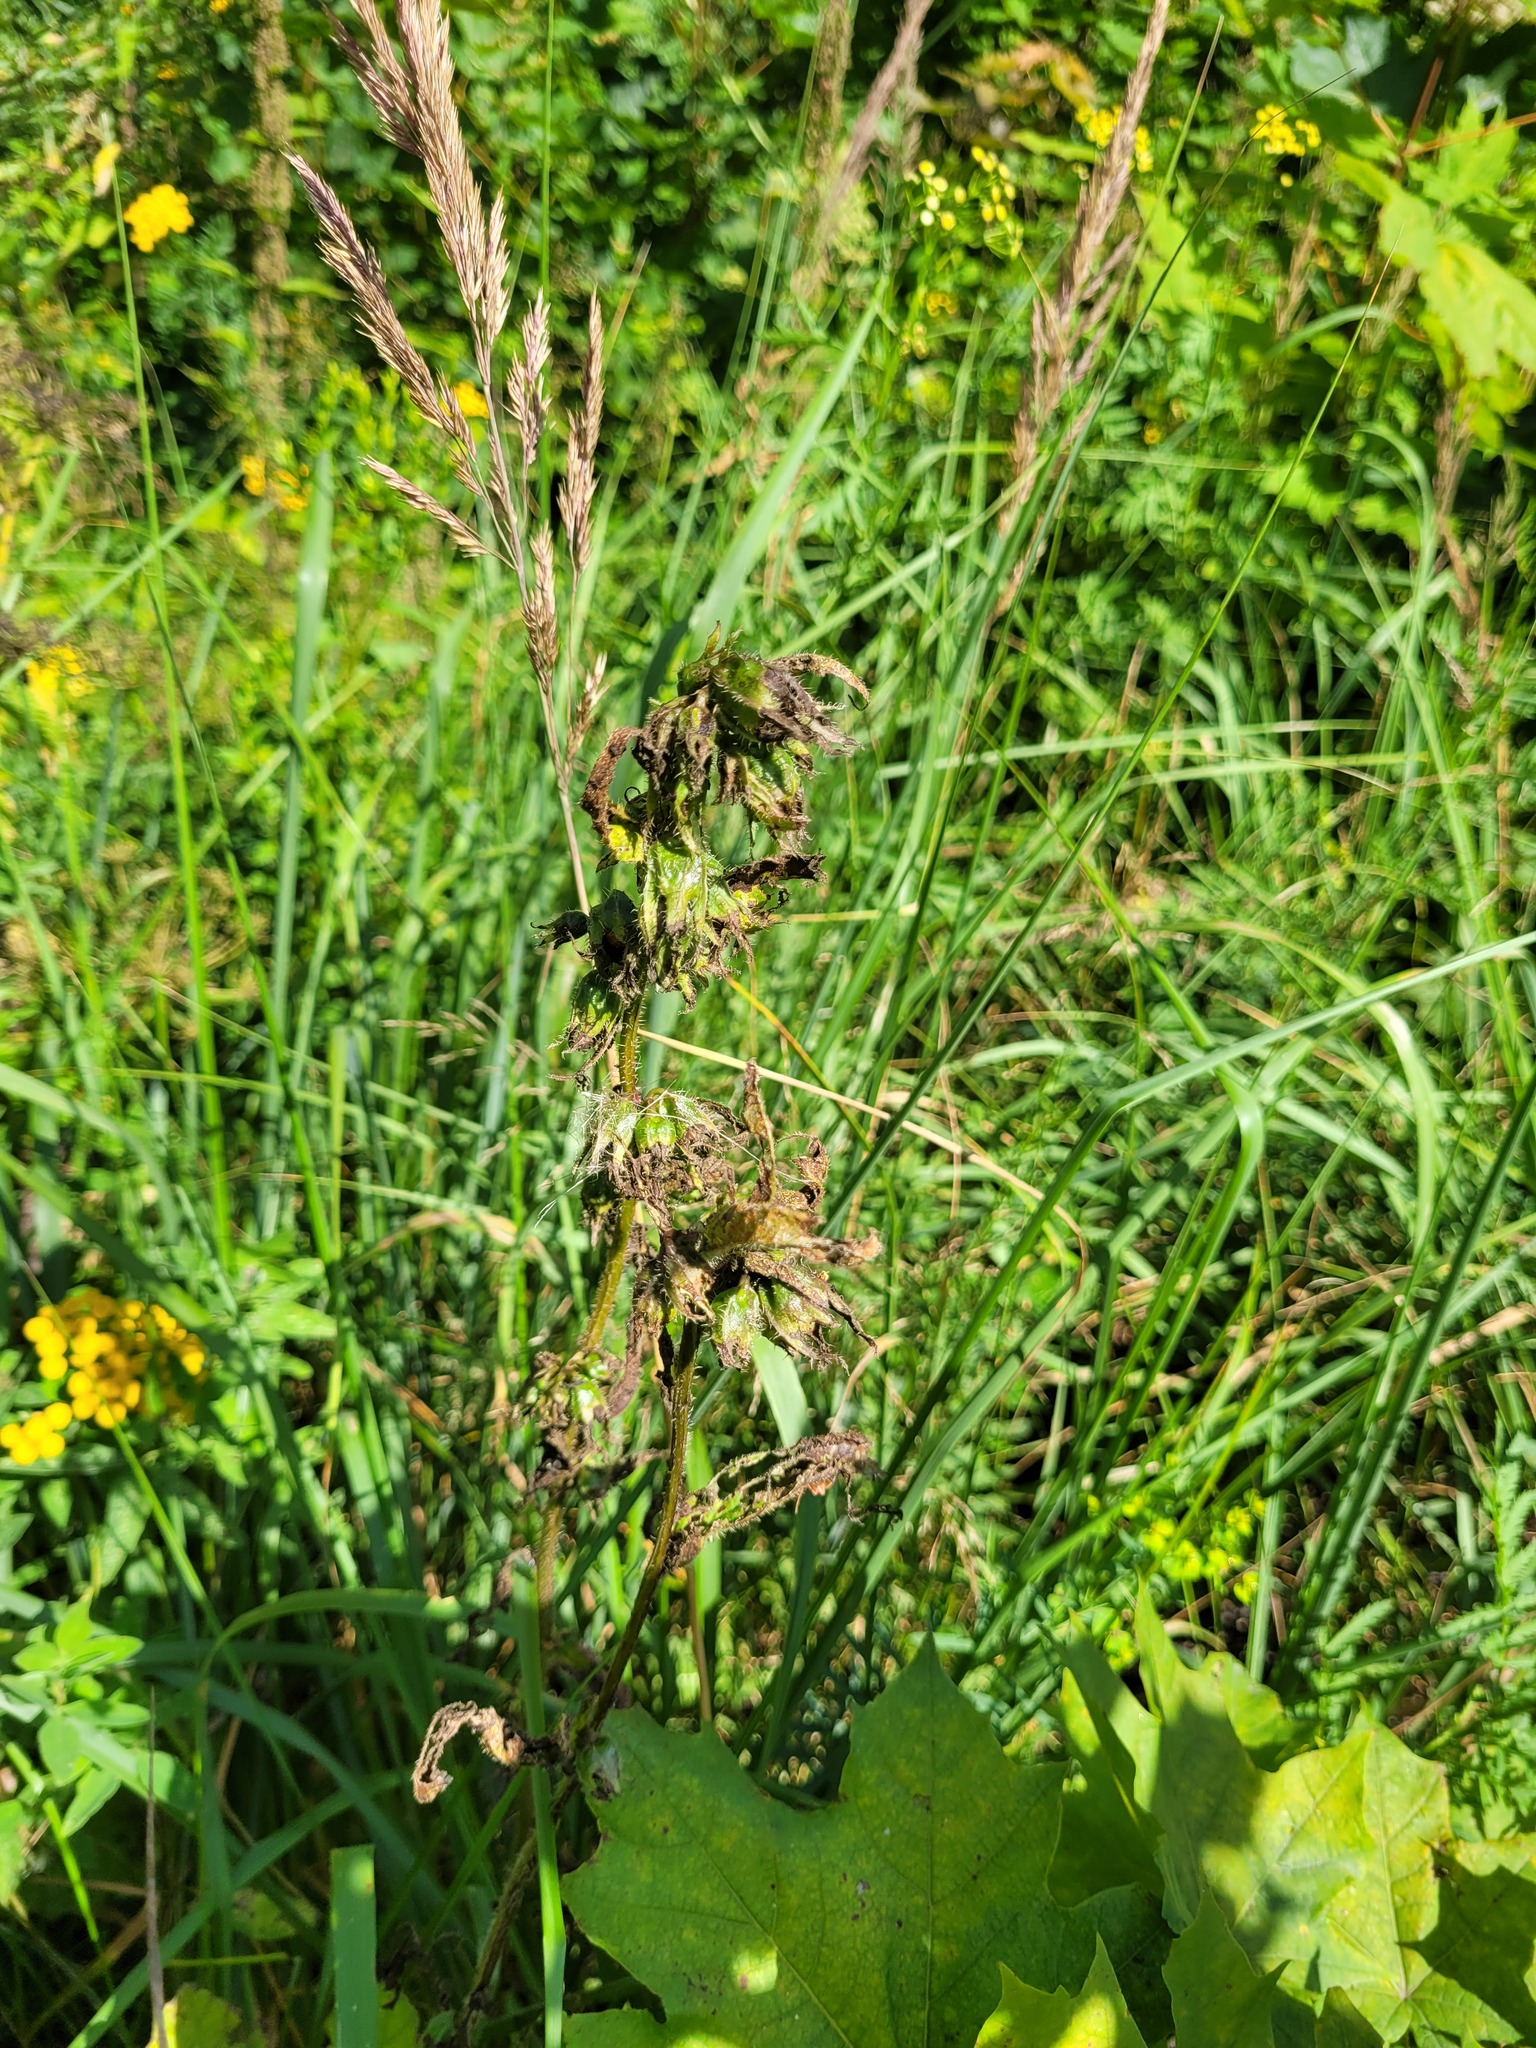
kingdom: Plantae
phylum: Tracheophyta
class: Magnoliopsida
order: Asterales
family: Campanulaceae
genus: Campanula
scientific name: Campanula trachelium
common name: Nettle-leaved bellflower
